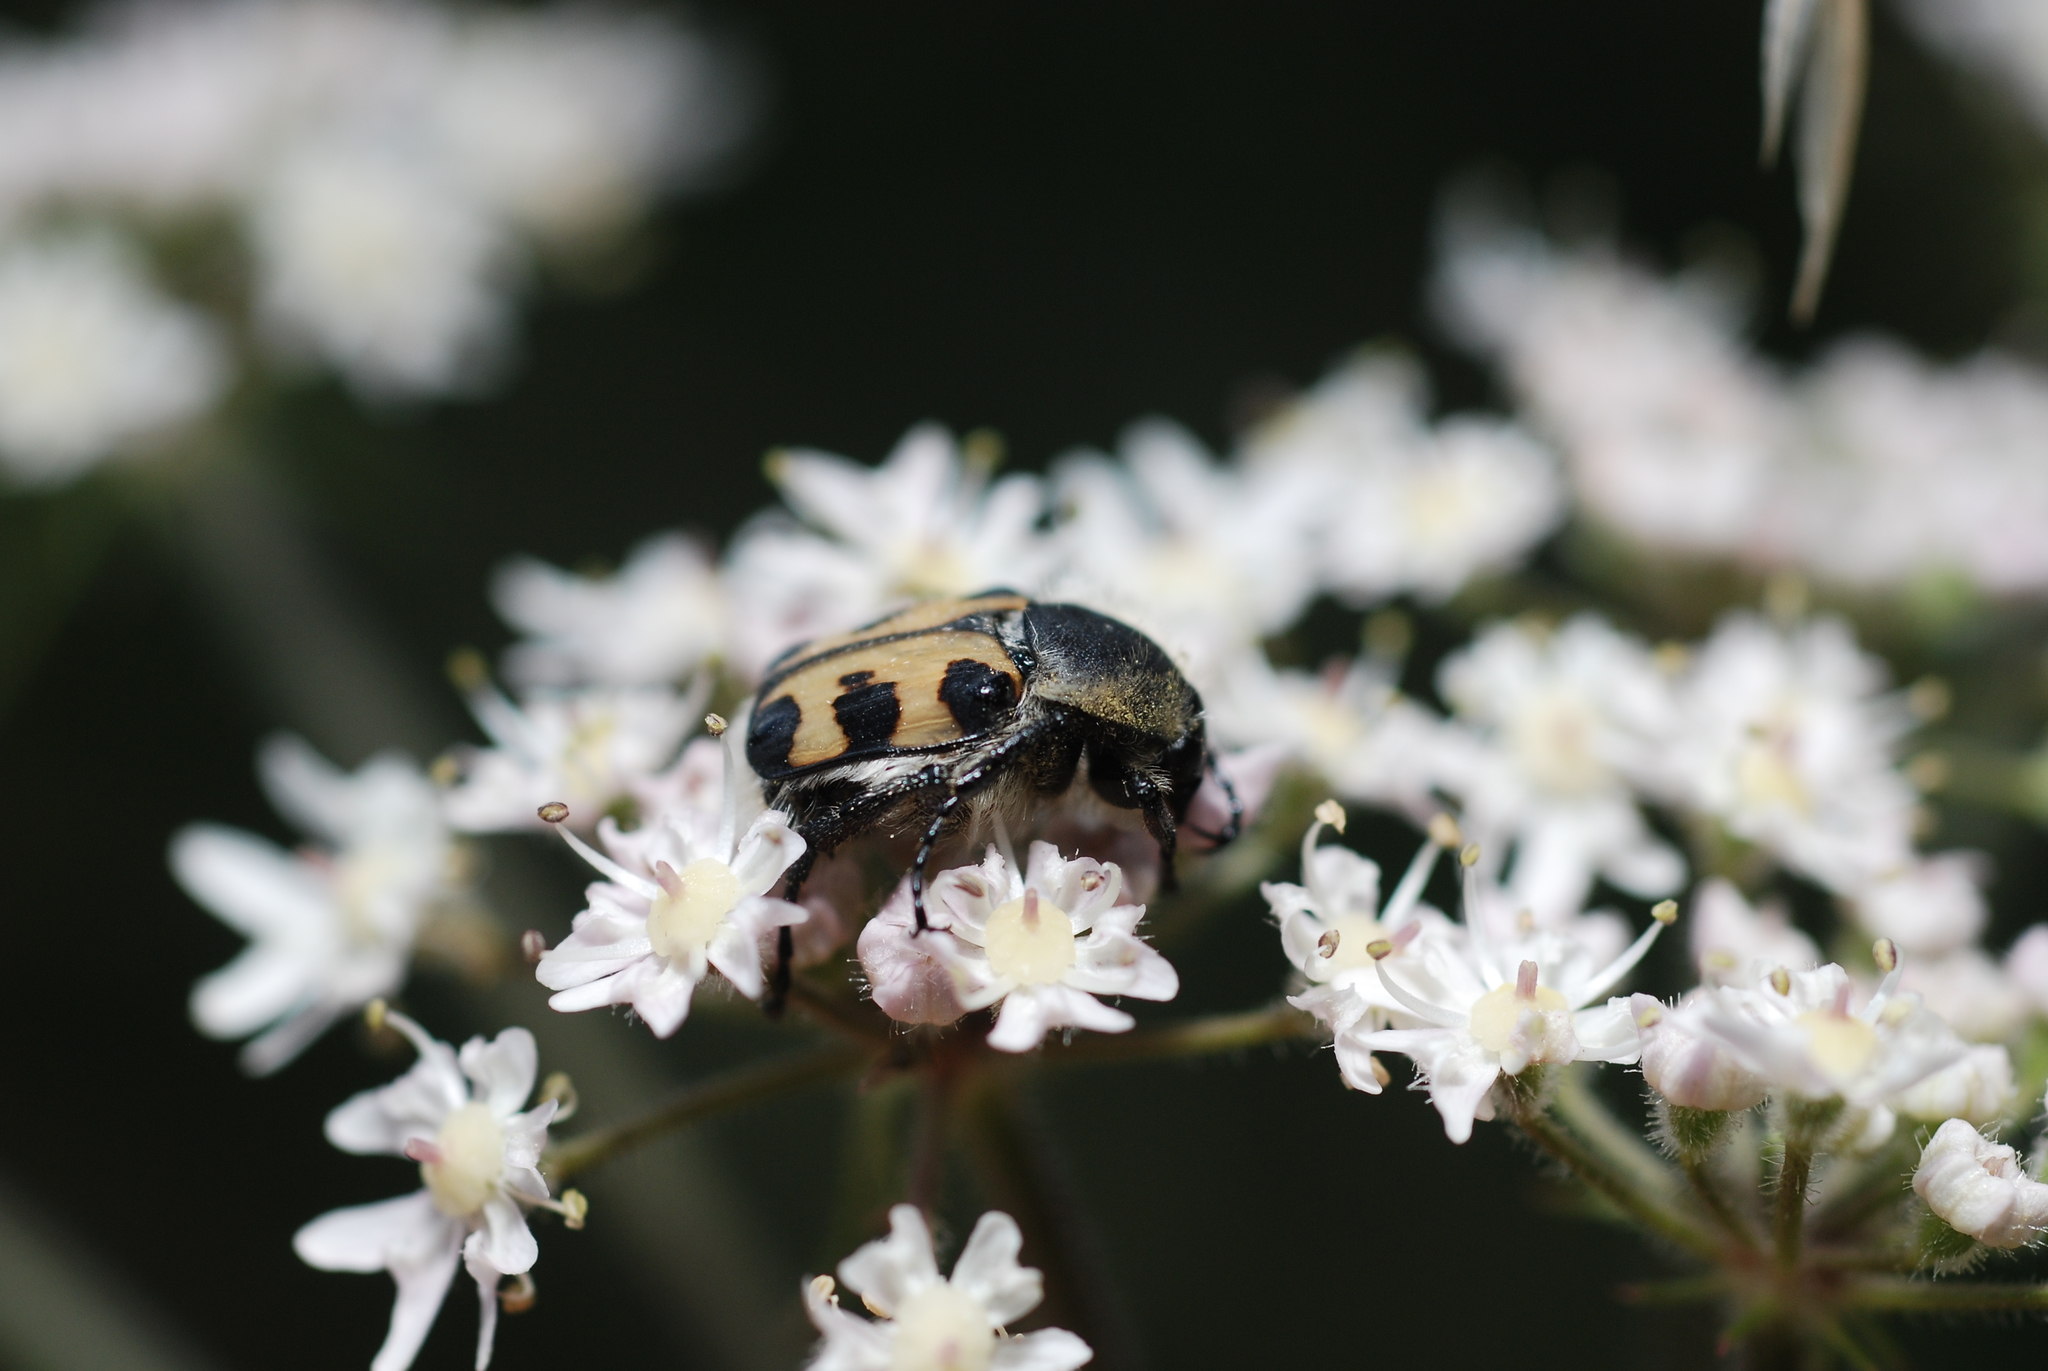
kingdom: Animalia
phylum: Arthropoda
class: Insecta
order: Coleoptera
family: Scarabaeidae
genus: Trichius
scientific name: Trichius gallicus
